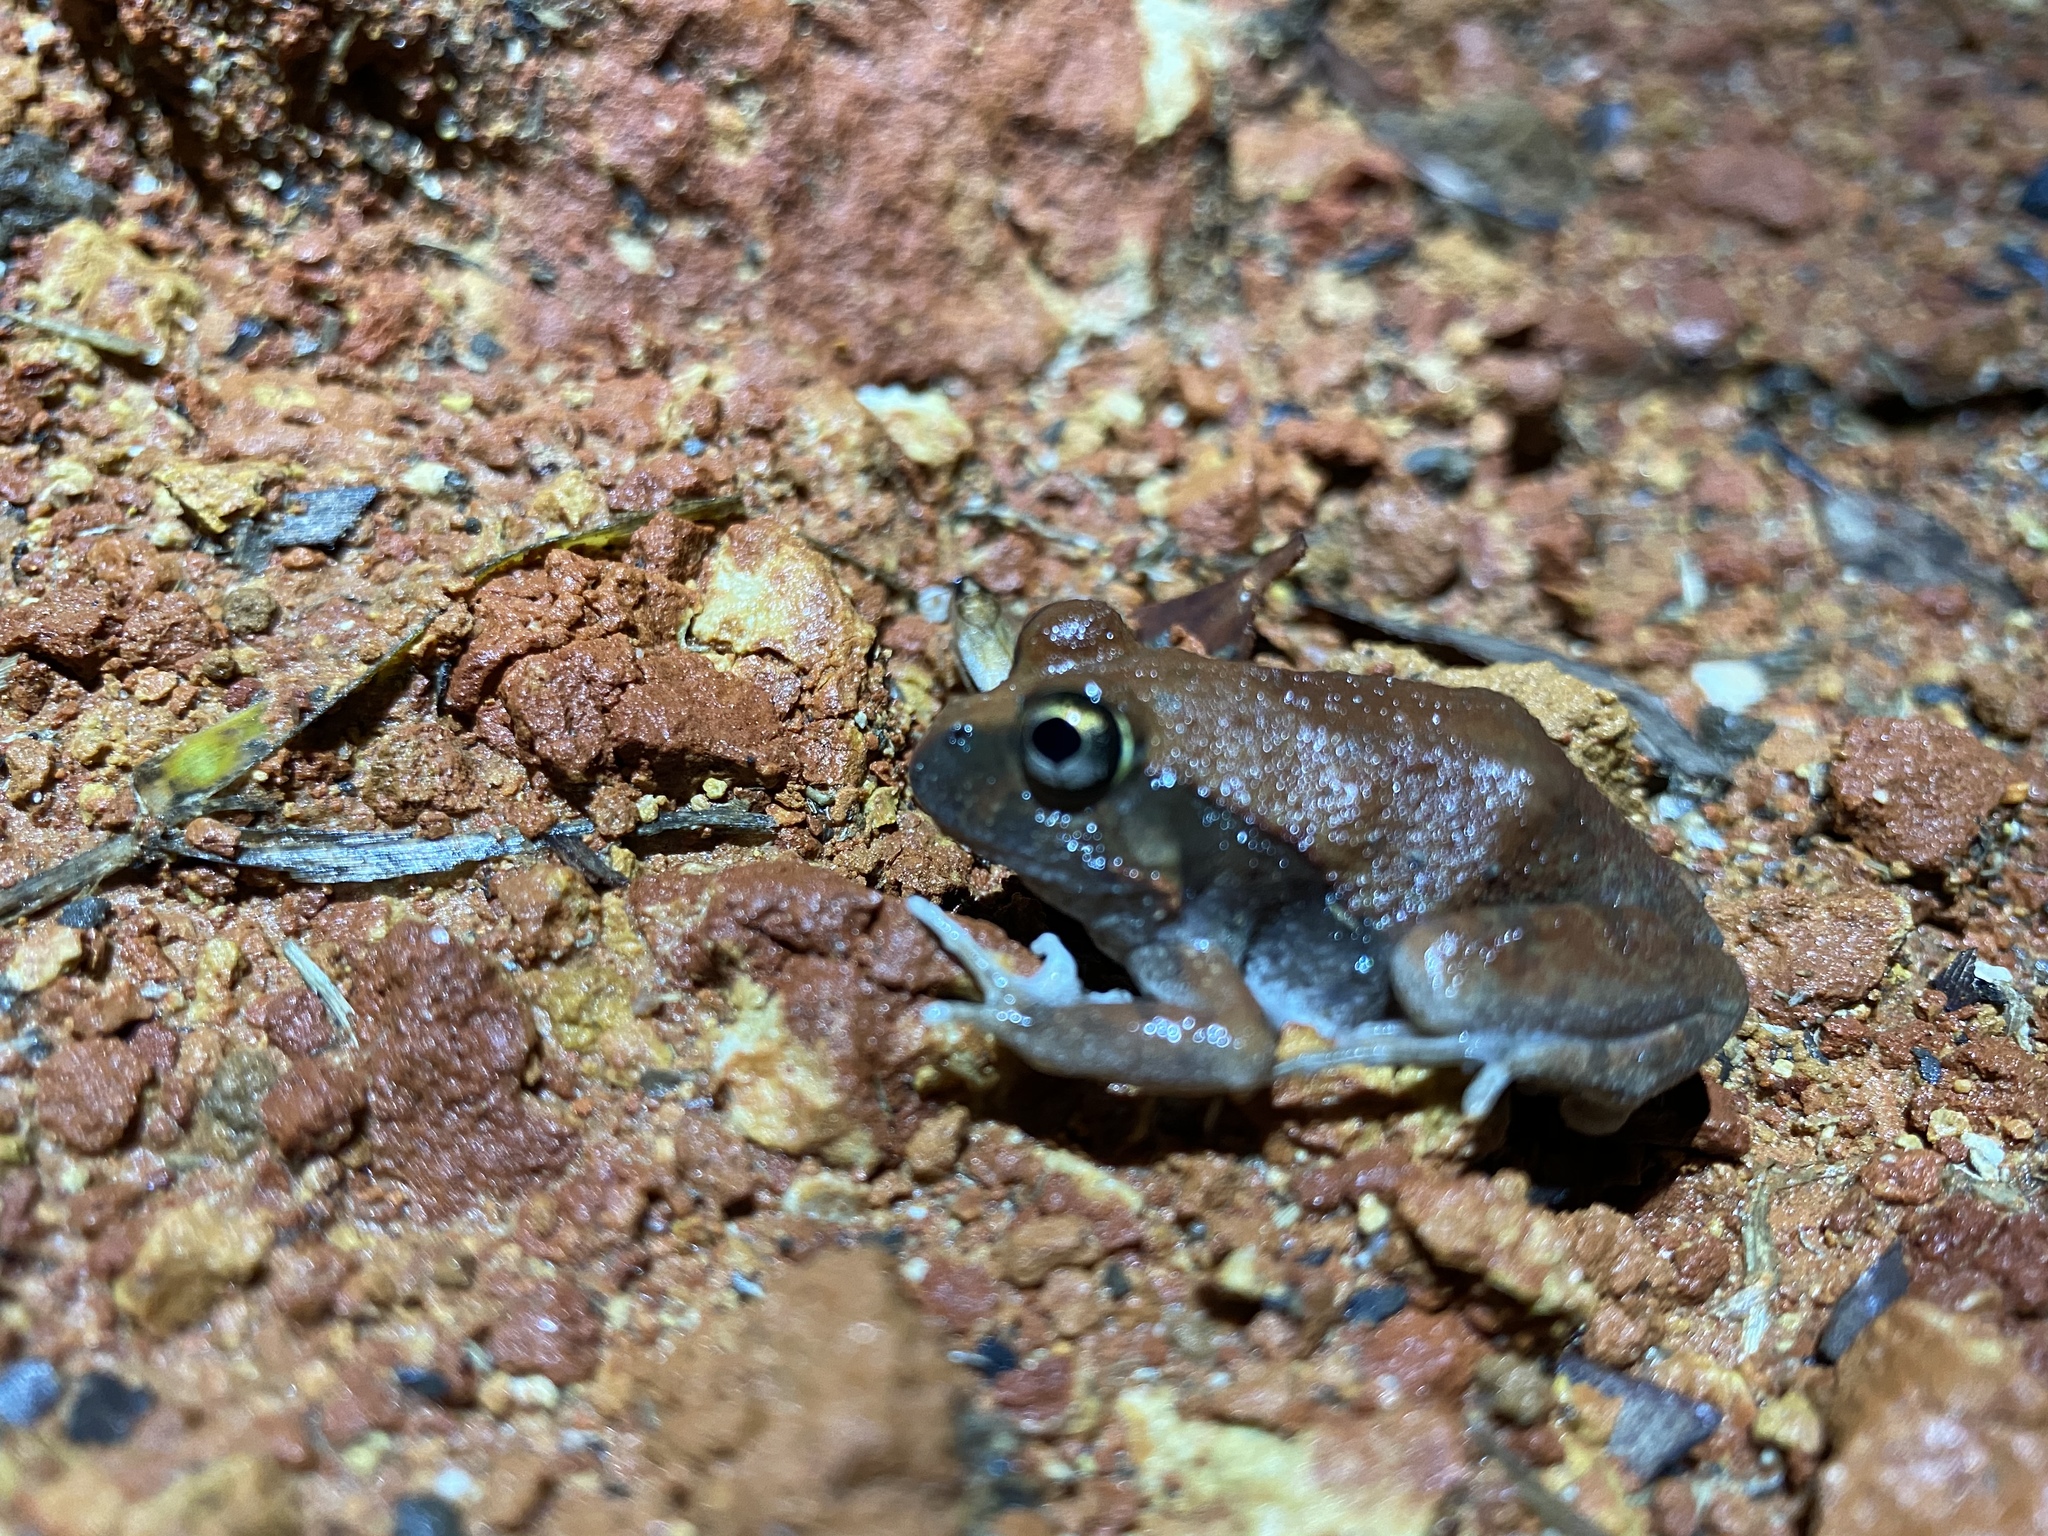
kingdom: Animalia
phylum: Chordata
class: Amphibia
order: Anura
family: Limnodynastidae
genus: Platyplectrum
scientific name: Platyplectrum ornatum
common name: Ornate burrowing frog
